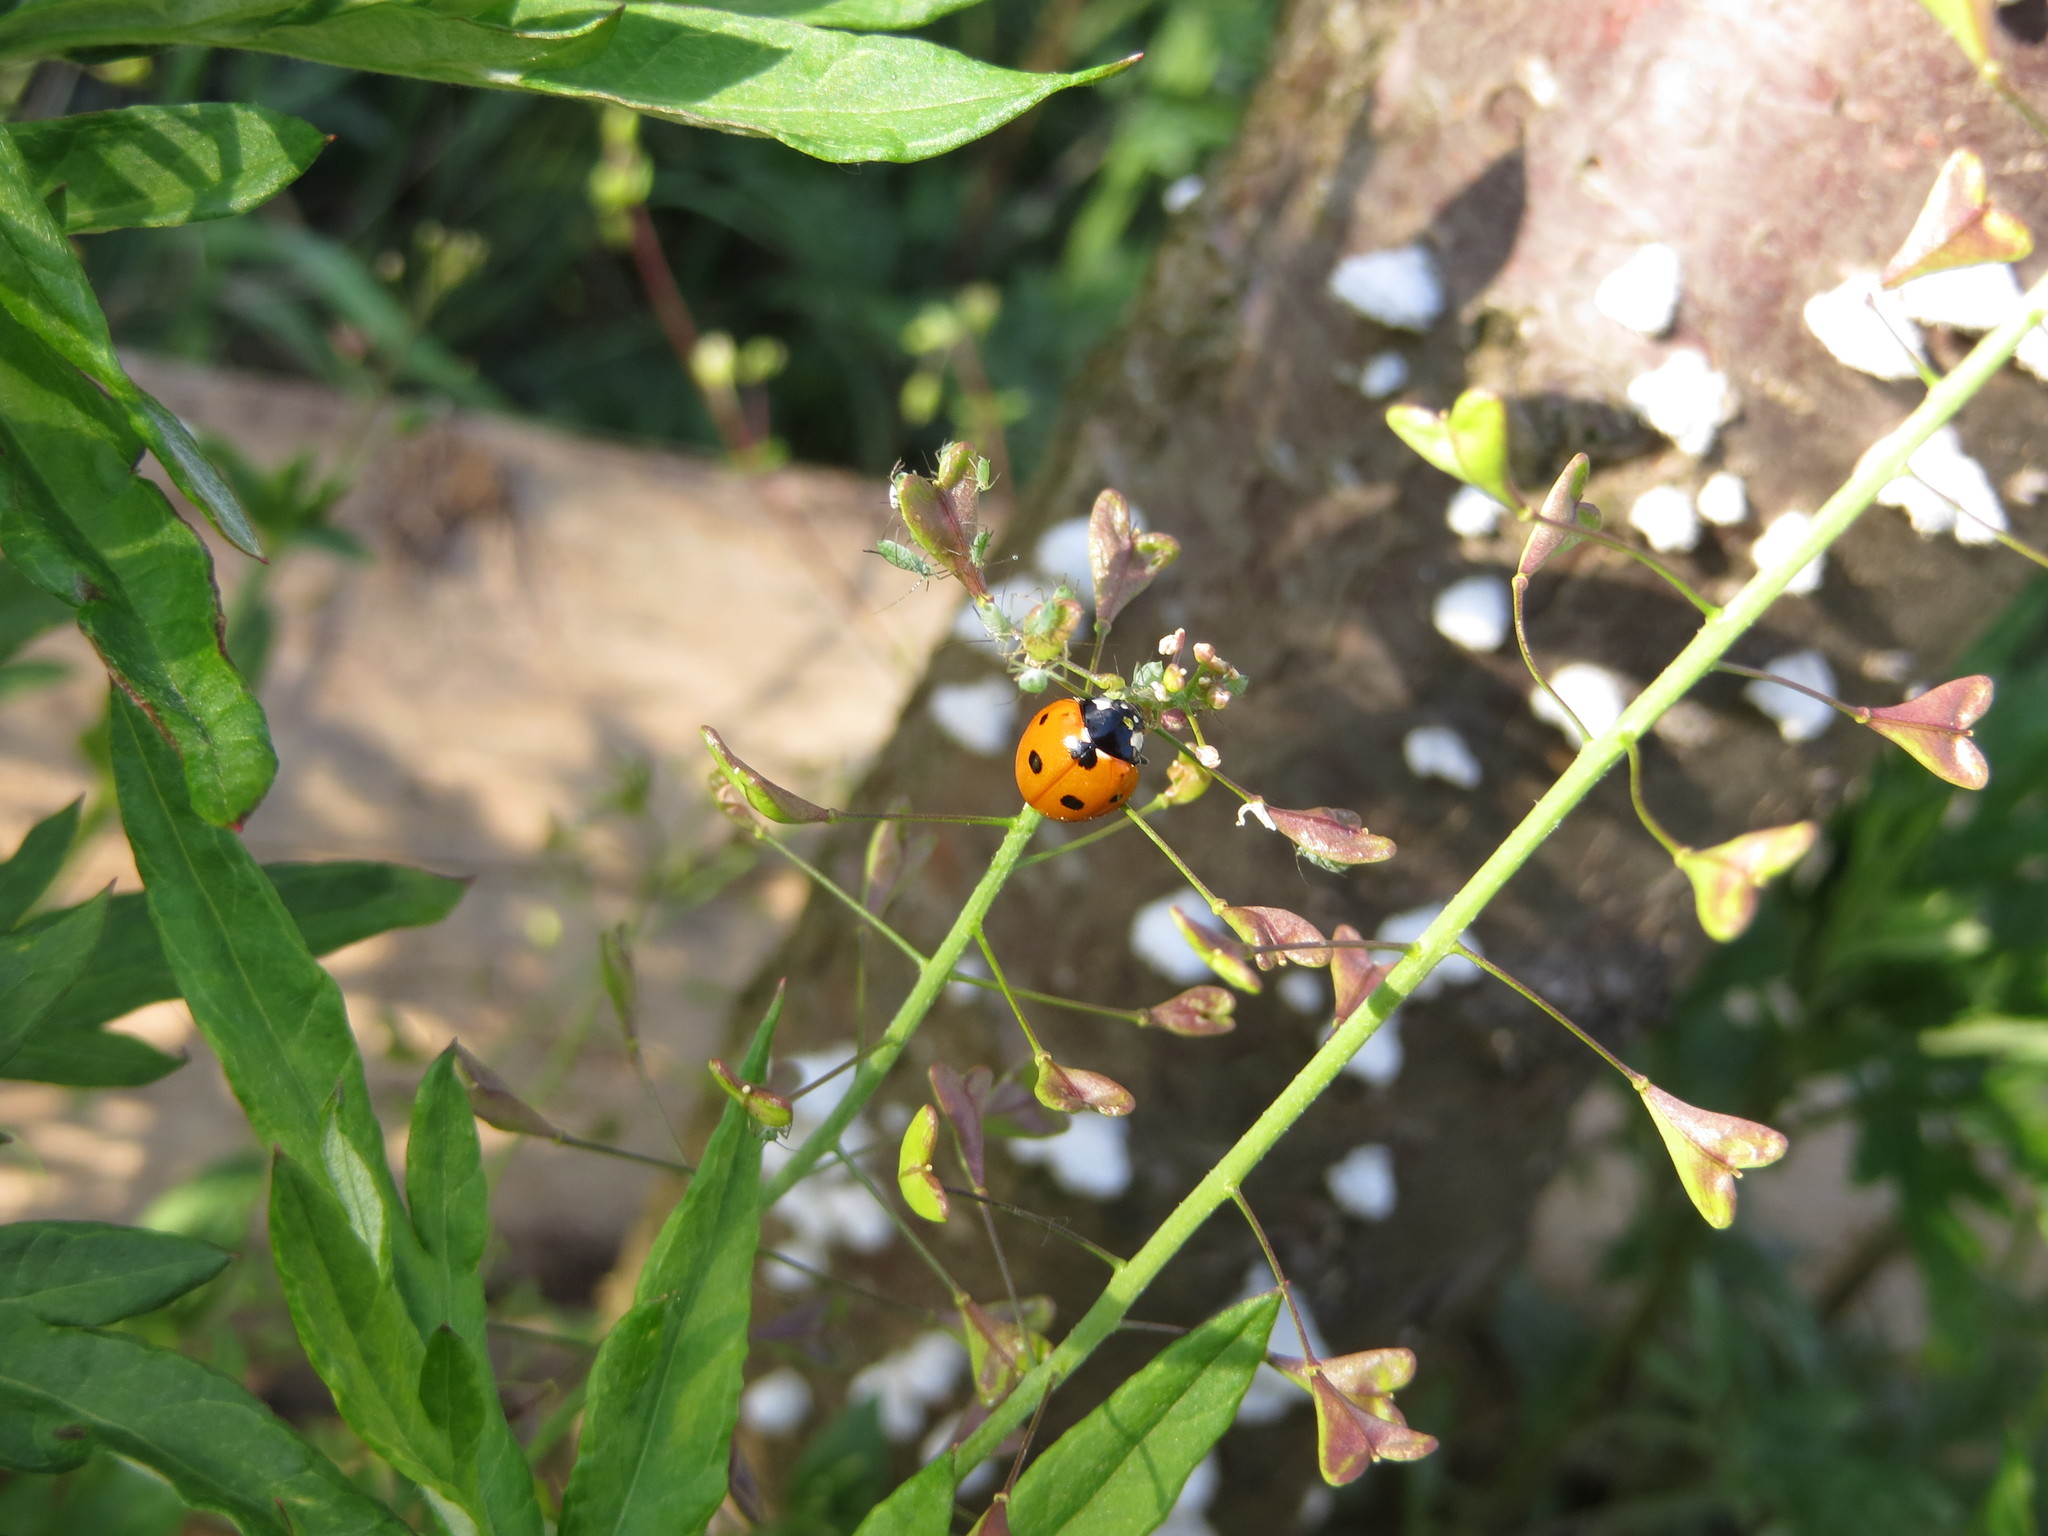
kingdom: Animalia
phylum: Arthropoda
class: Insecta
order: Coleoptera
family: Coccinellidae
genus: Coccinella
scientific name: Coccinella septempunctata
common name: Sevenspotted lady beetle
